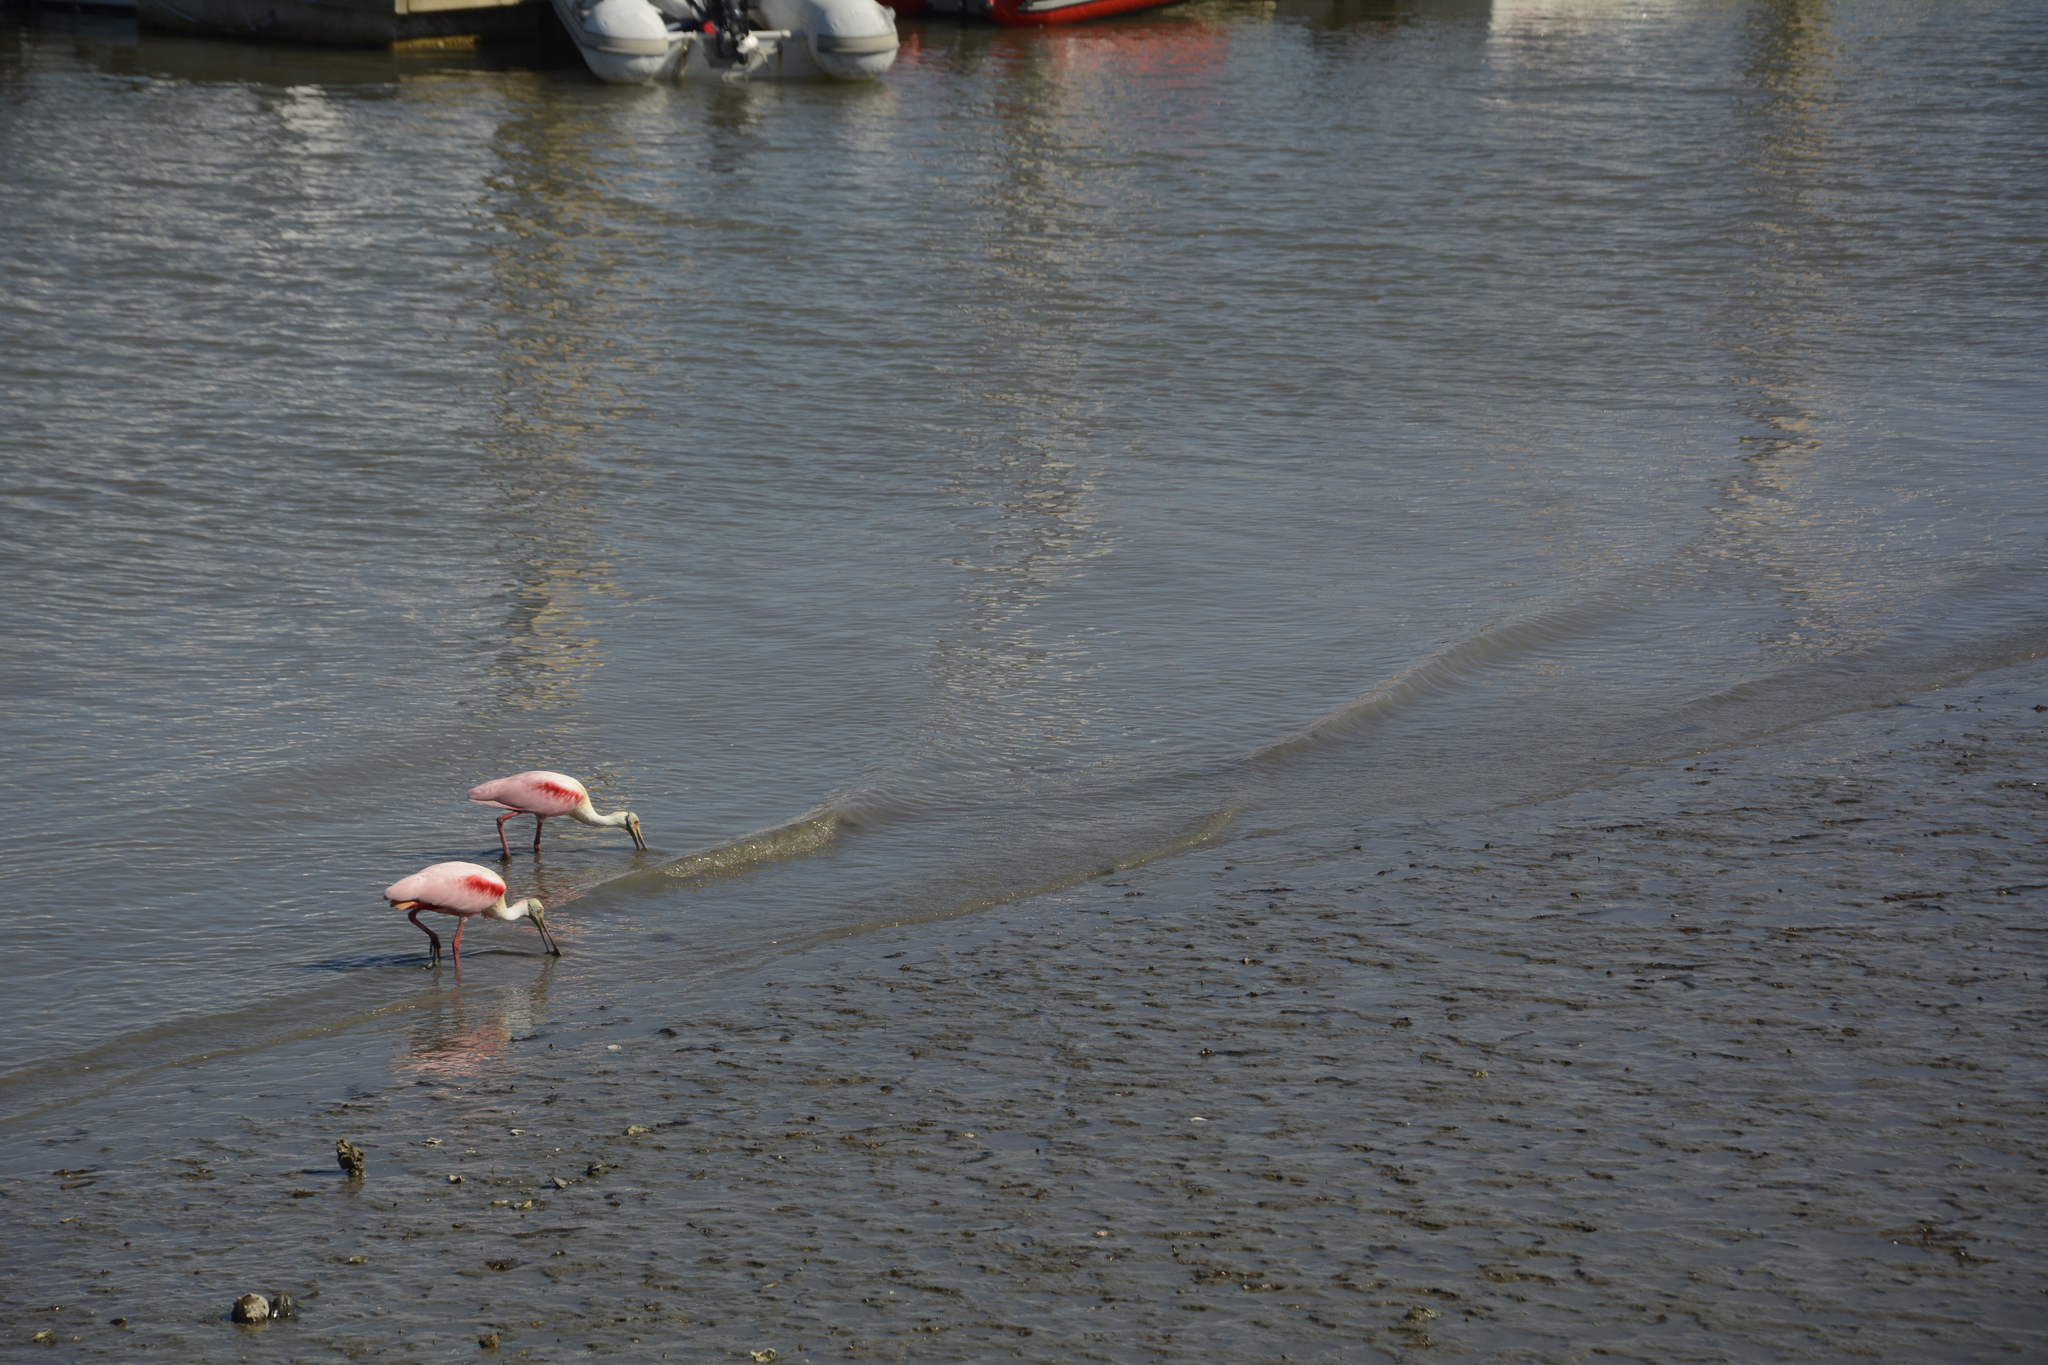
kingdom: Animalia
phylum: Chordata
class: Aves
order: Pelecaniformes
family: Threskiornithidae
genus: Platalea
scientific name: Platalea ajaja
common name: Roseate spoonbill
